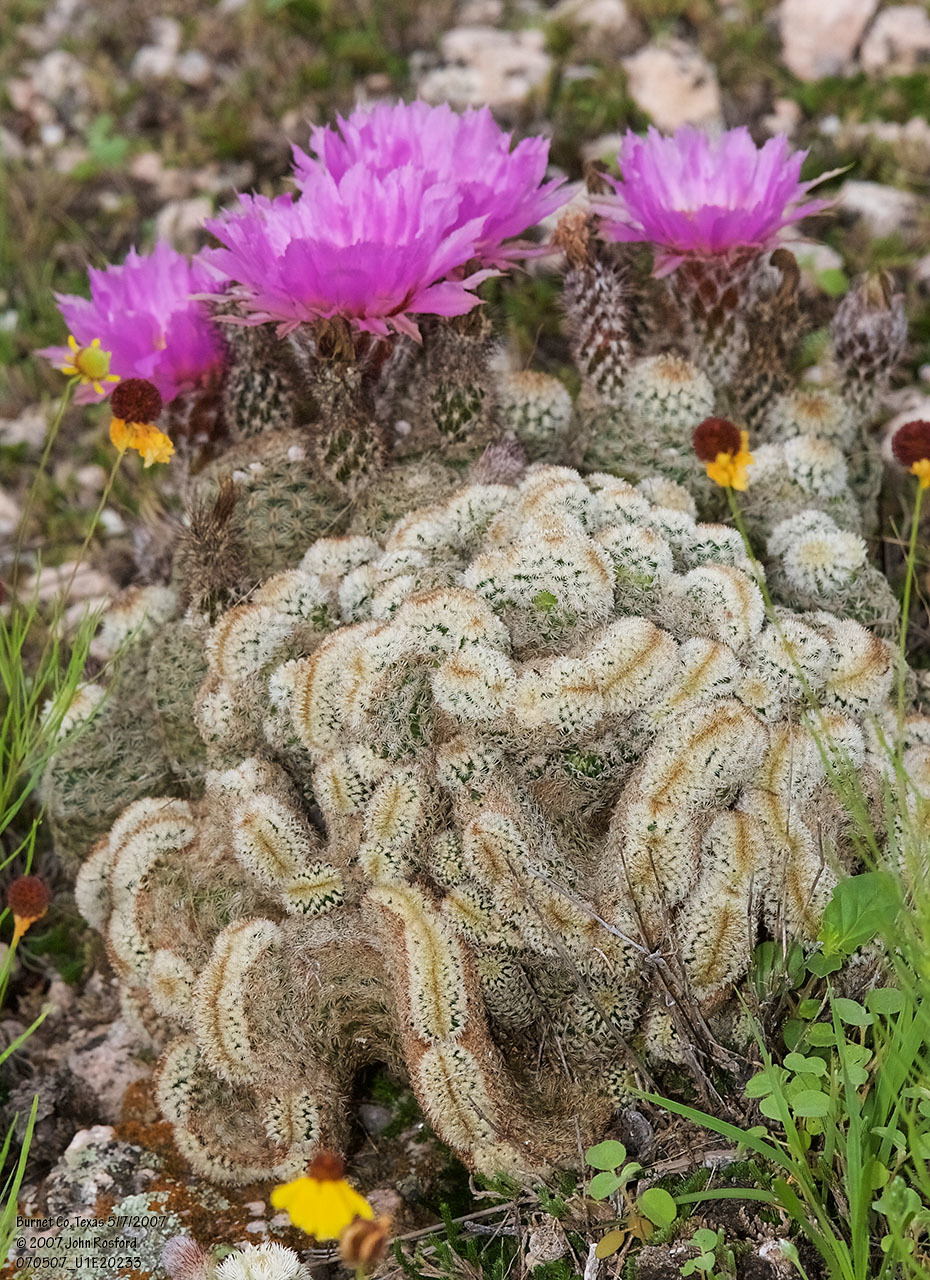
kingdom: Plantae
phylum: Tracheophyta
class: Magnoliopsida
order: Caryophyllales
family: Cactaceae
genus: Echinocereus
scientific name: Echinocereus reichenbachii
